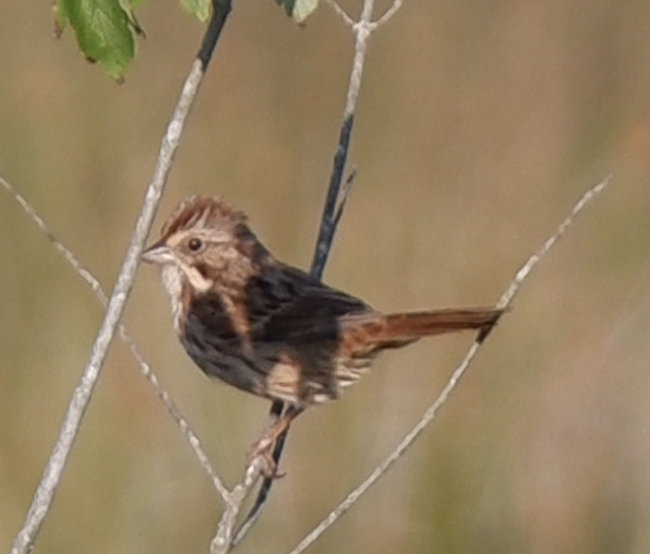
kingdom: Animalia
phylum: Chordata
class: Aves
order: Passeriformes
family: Passerellidae
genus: Melospiza
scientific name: Melospiza melodia
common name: Song sparrow
